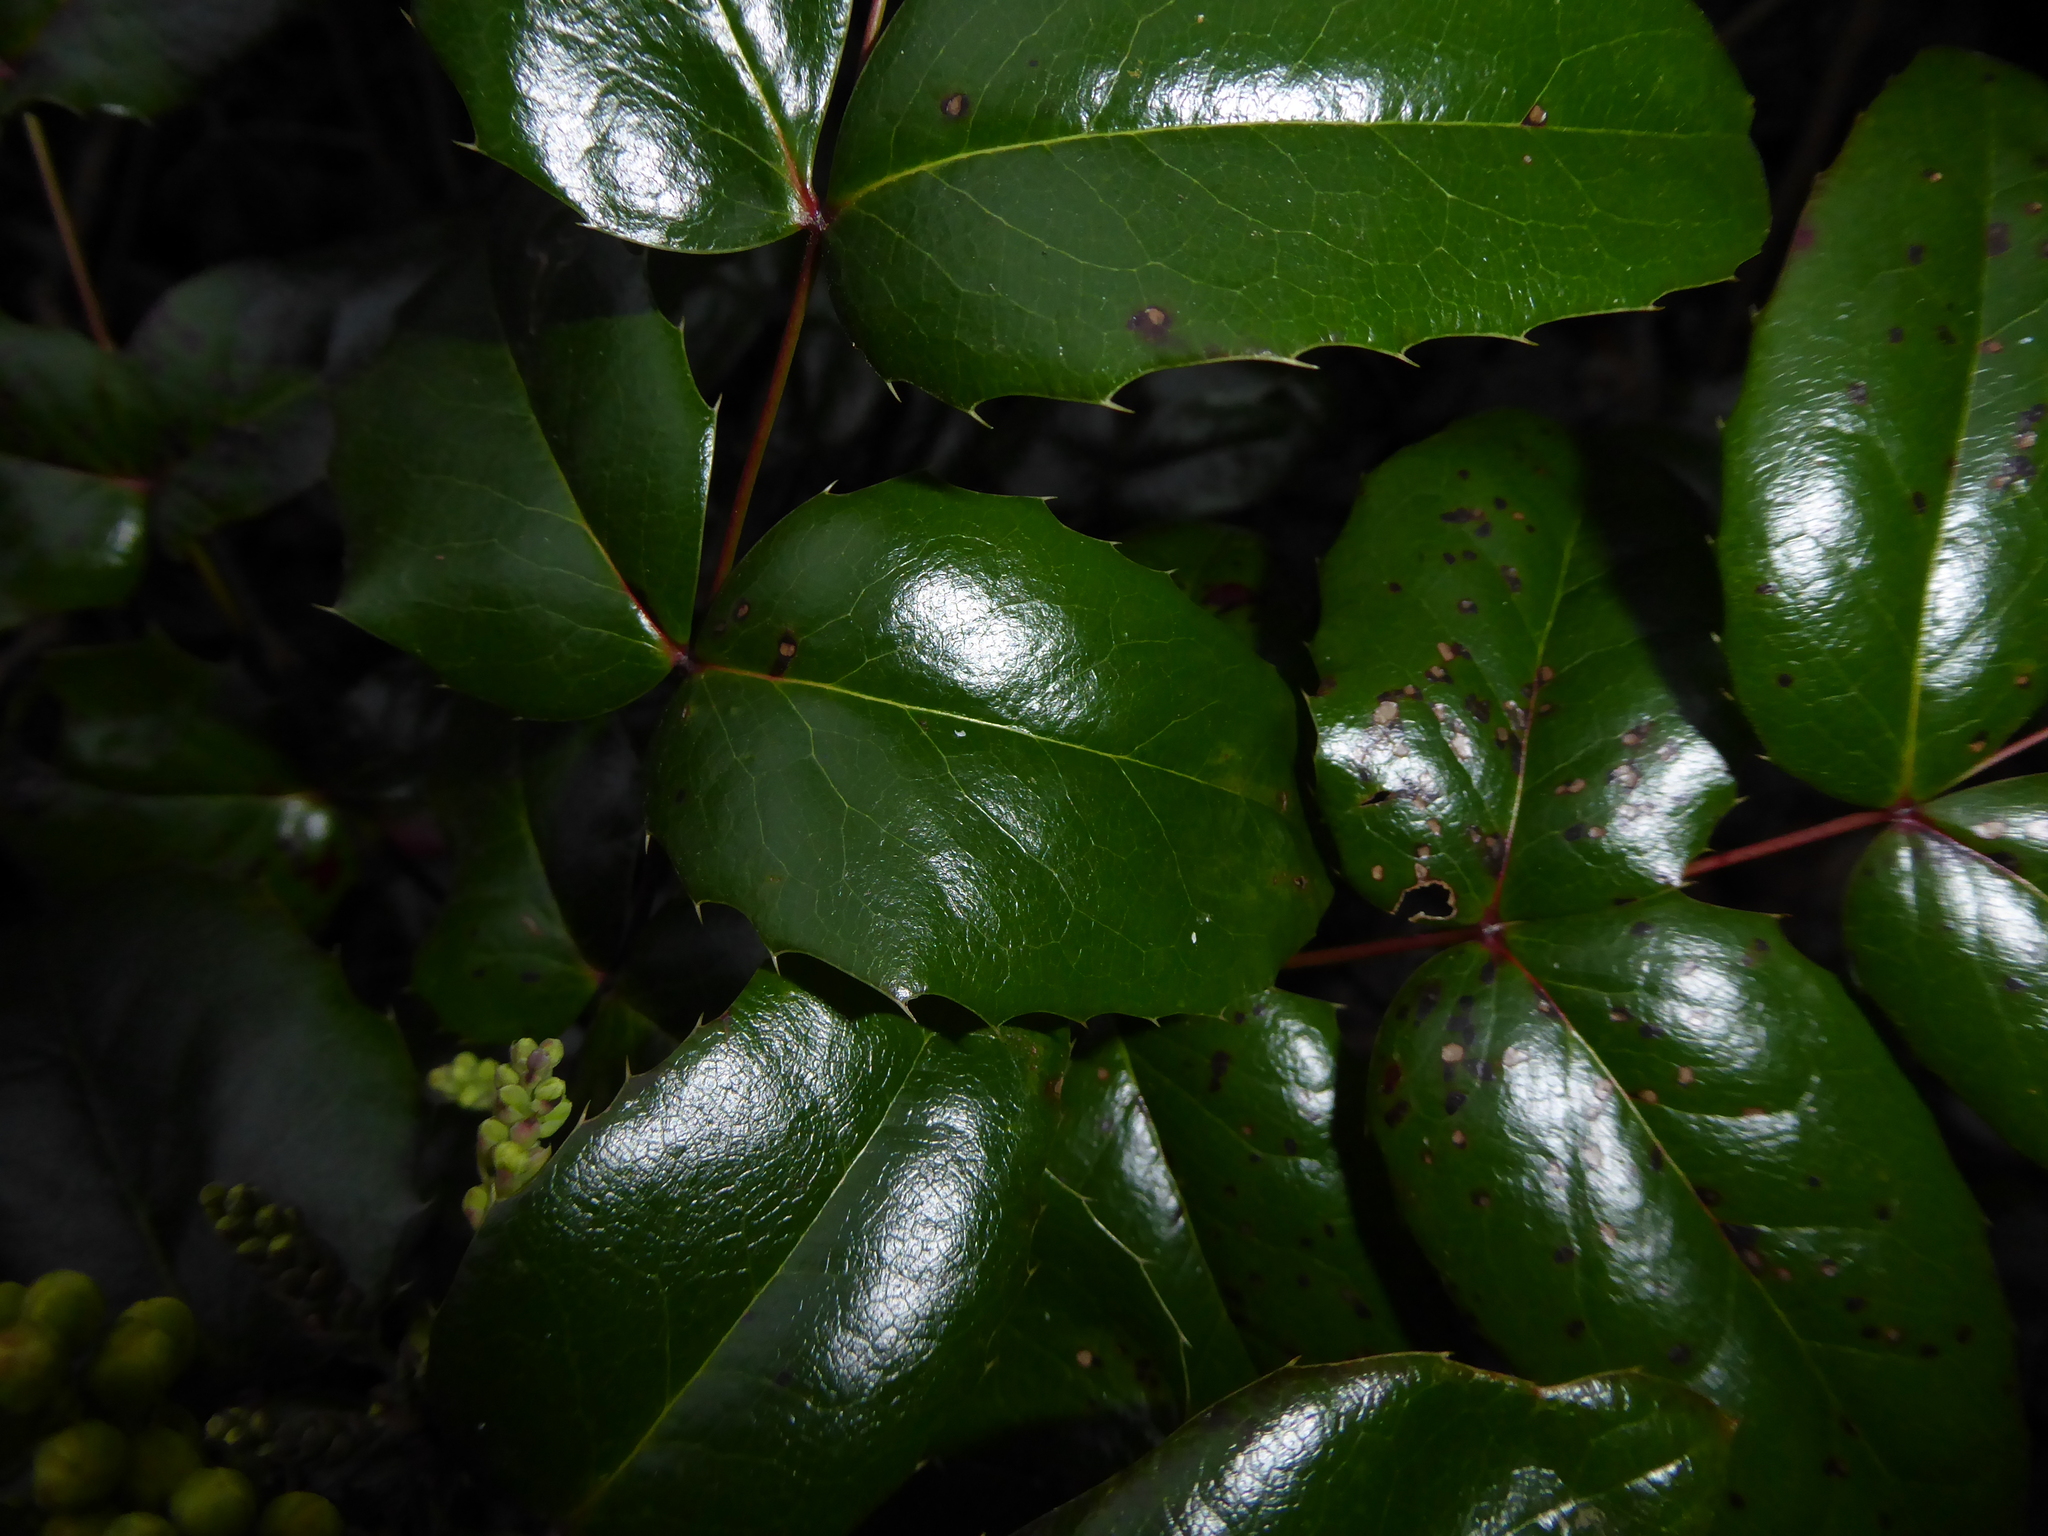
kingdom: Plantae
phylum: Tracheophyta
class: Magnoliopsida
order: Ranunculales
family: Berberidaceae
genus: Mahonia
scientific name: Mahonia aquifolium
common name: Oregon-grape
